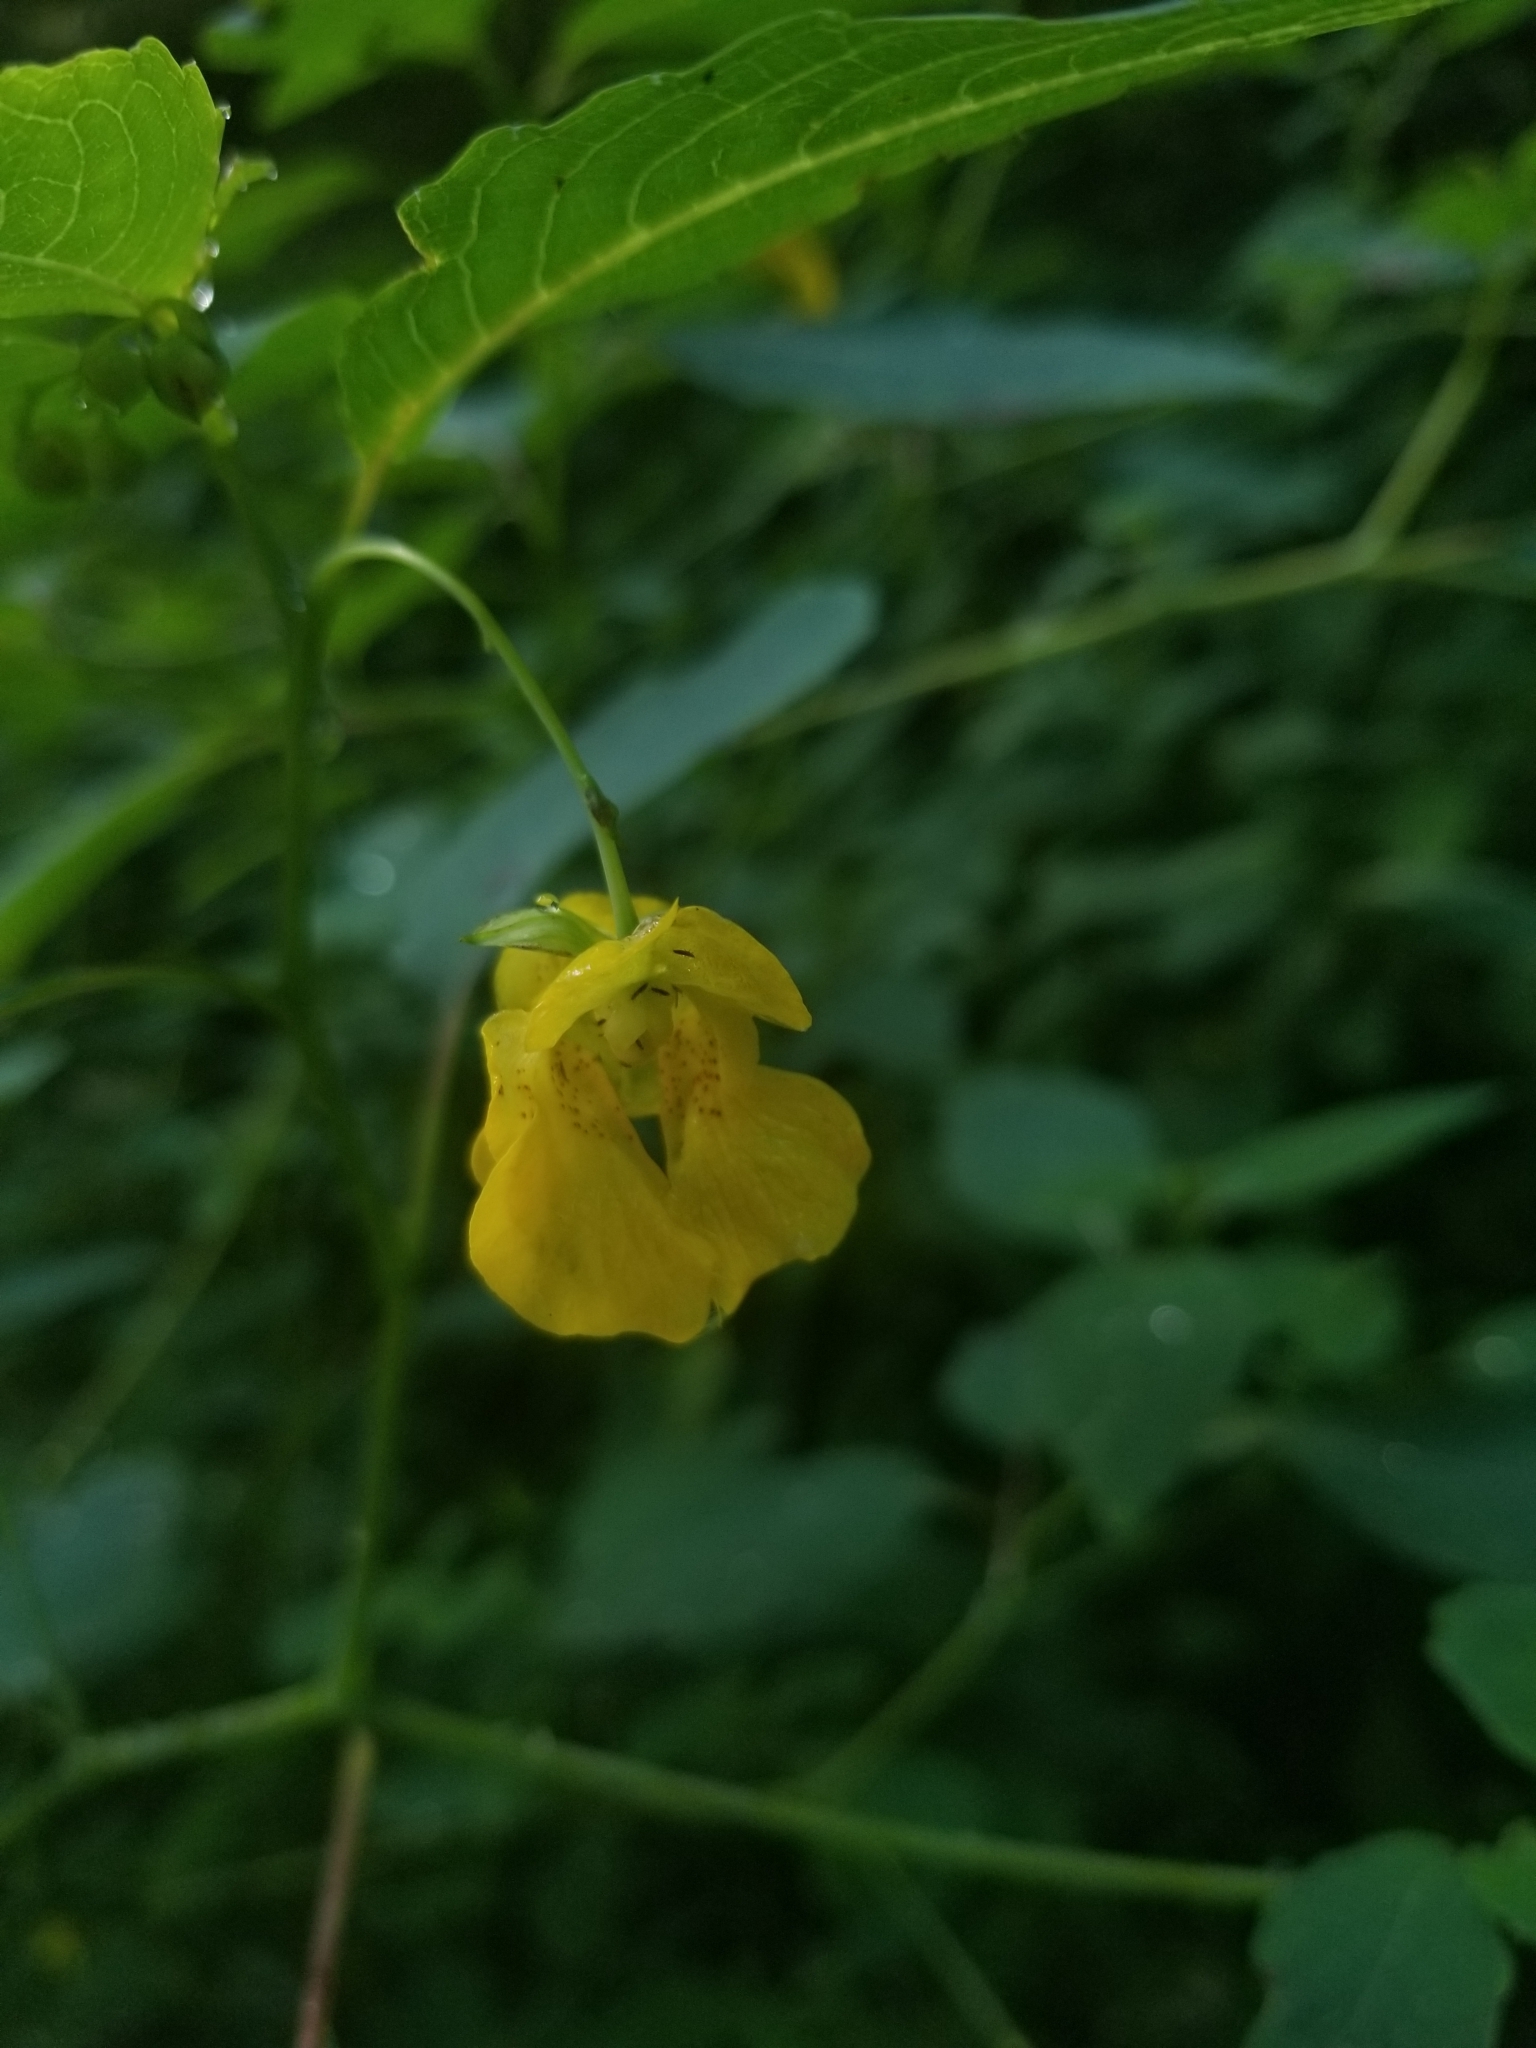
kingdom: Plantae
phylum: Tracheophyta
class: Magnoliopsida
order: Ericales
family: Balsaminaceae
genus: Impatiens
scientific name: Impatiens pallida
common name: Pale snapweed
